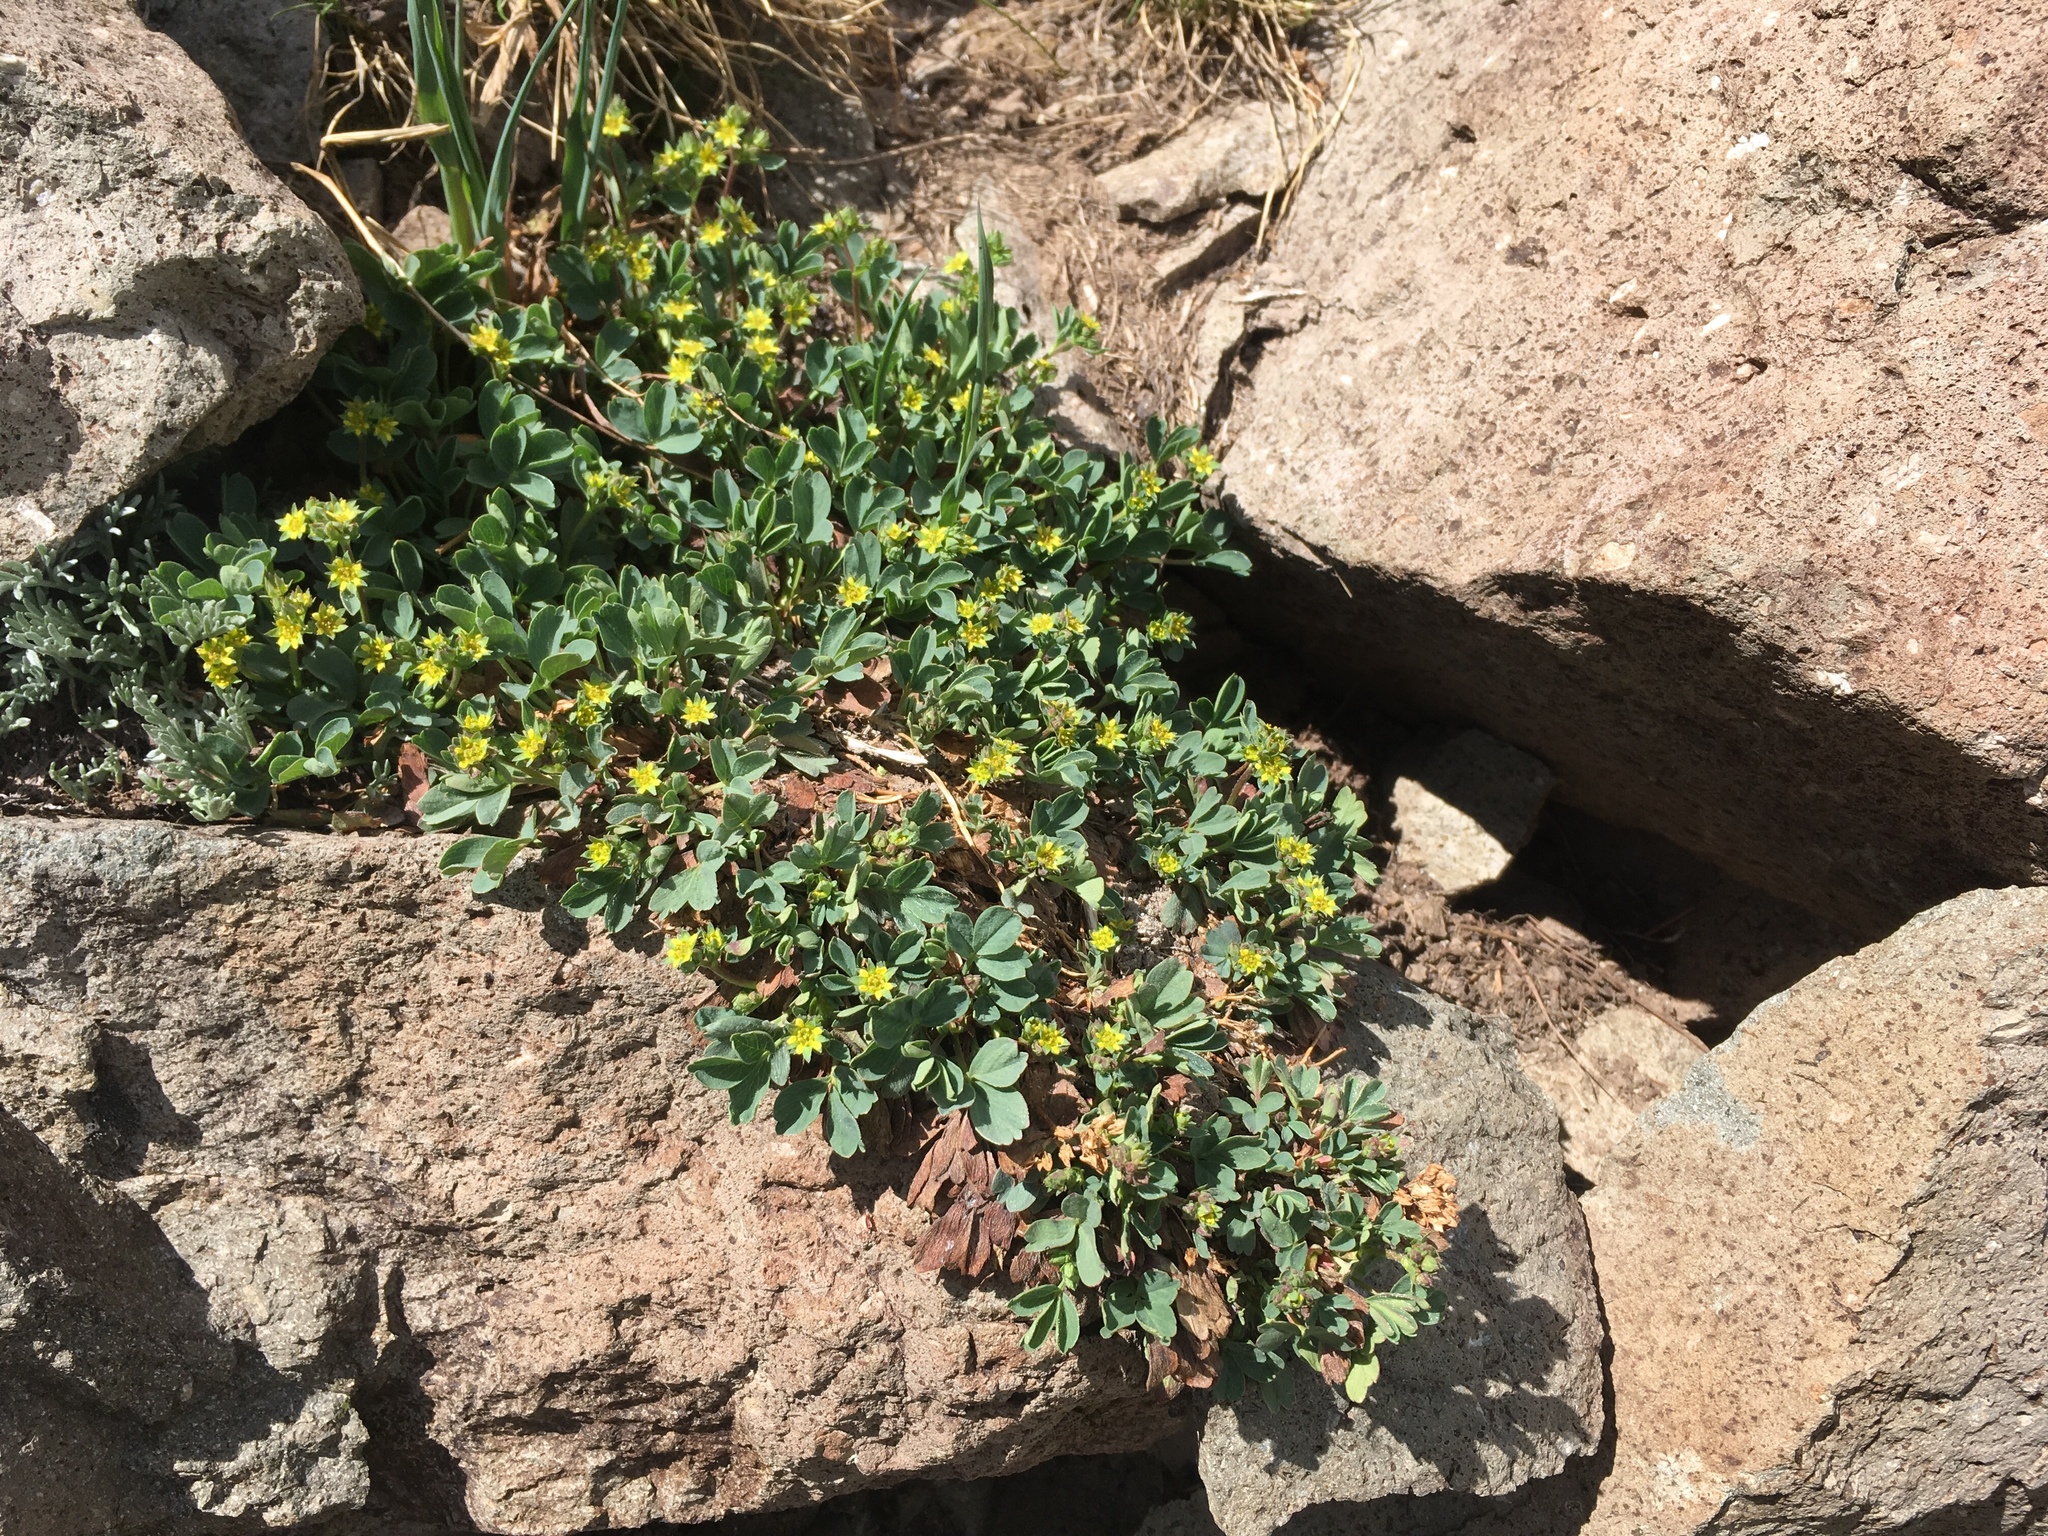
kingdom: Plantae
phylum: Tracheophyta
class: Magnoliopsida
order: Rosales
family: Rosaceae
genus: Sibbaldia
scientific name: Sibbaldia procumbens
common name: Creeping sibbaldia
